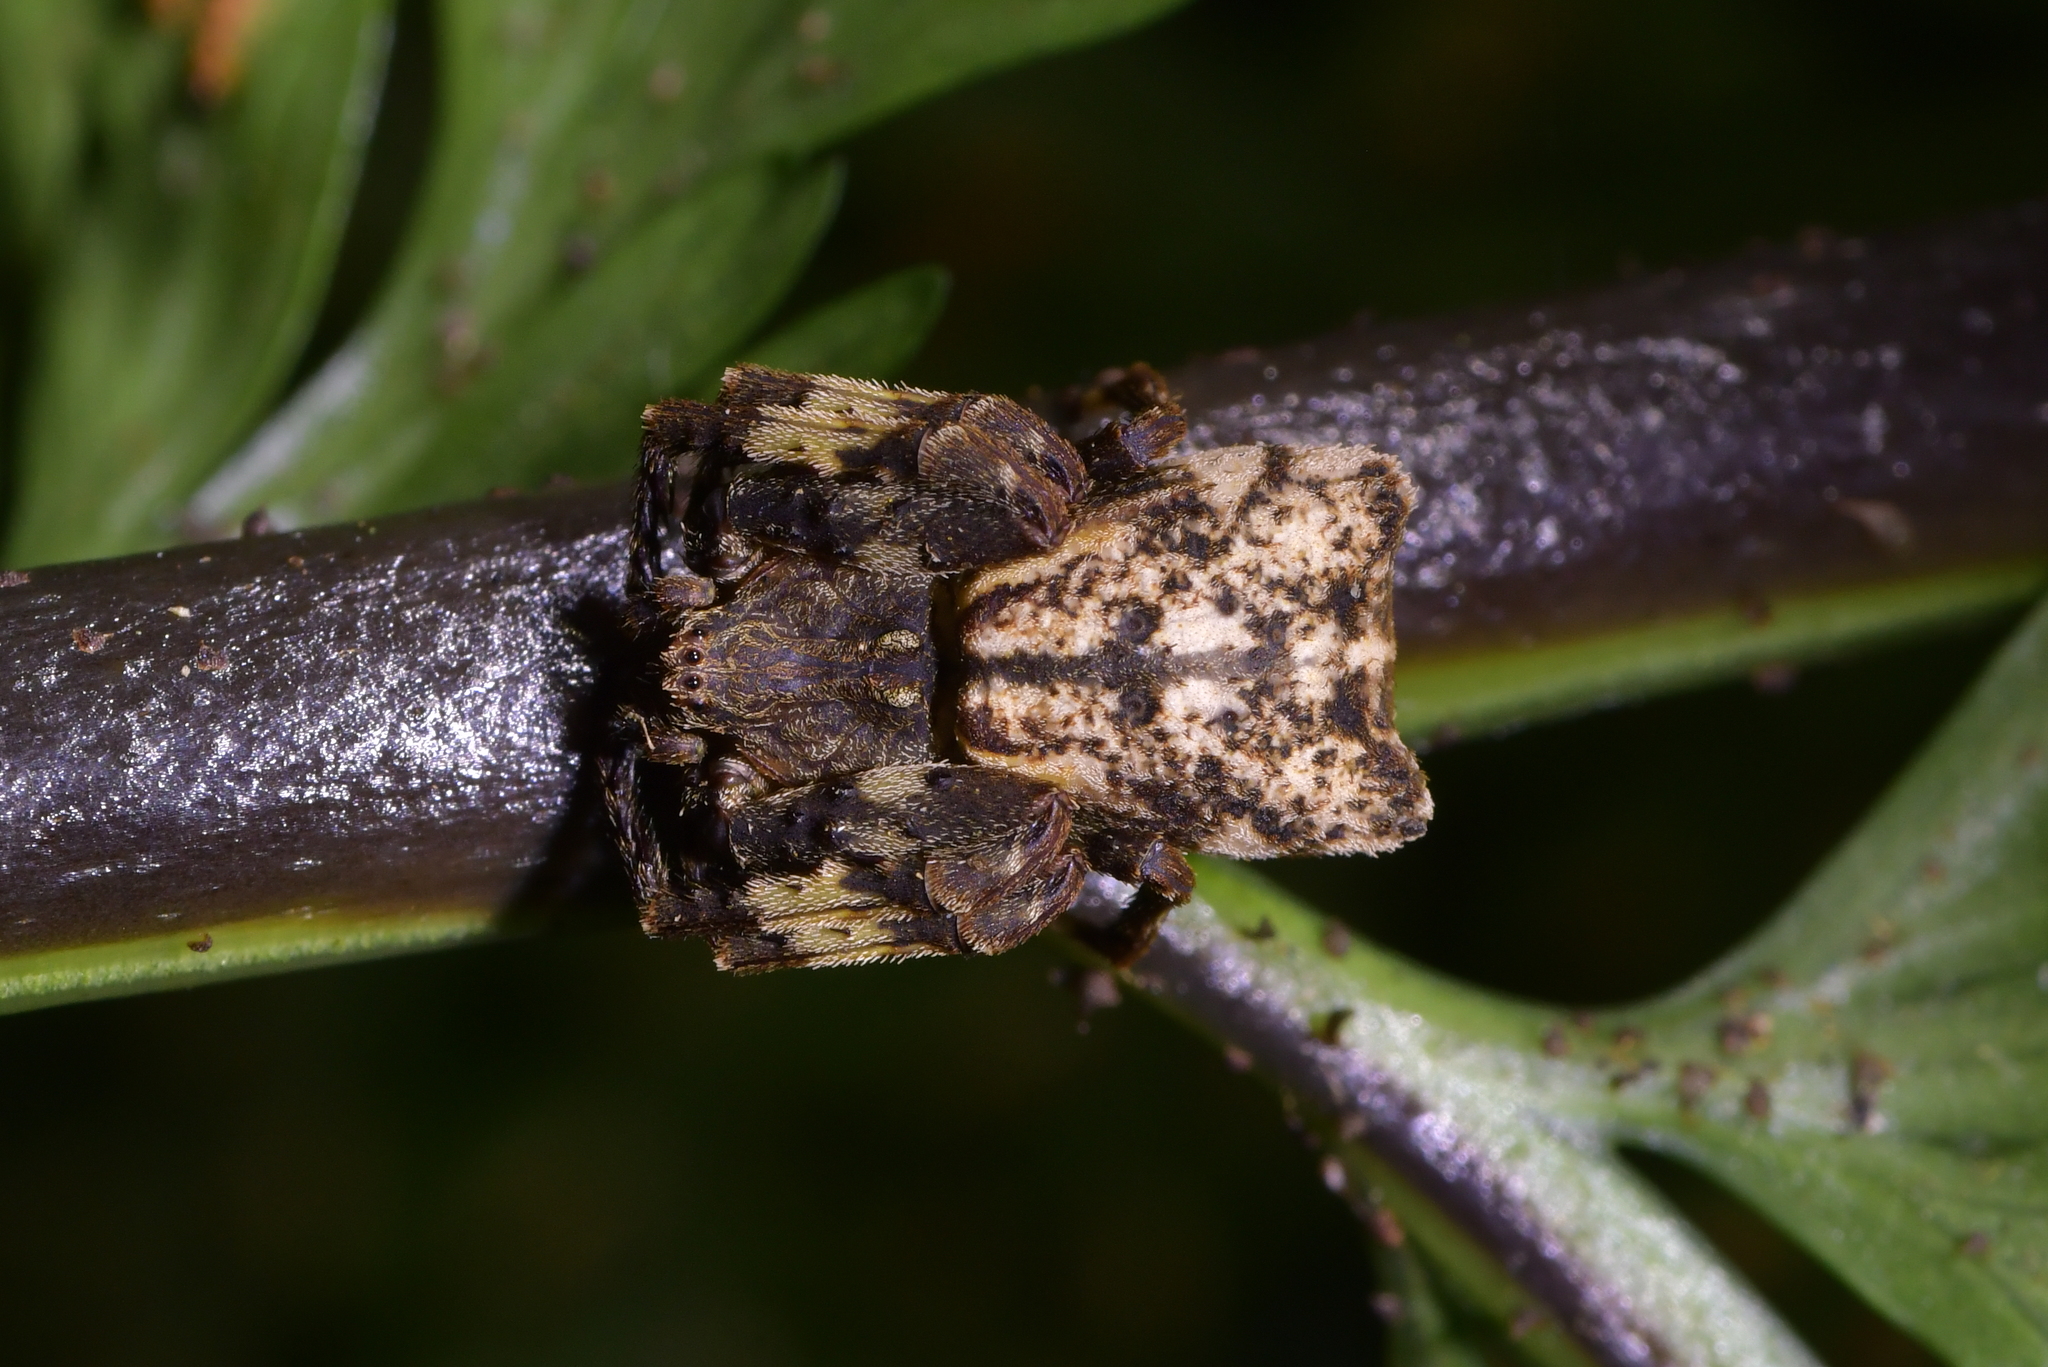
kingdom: Animalia
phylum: Arthropoda
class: Arachnida
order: Araneae
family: Thomisidae
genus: Sidymella
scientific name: Sidymella angularis
